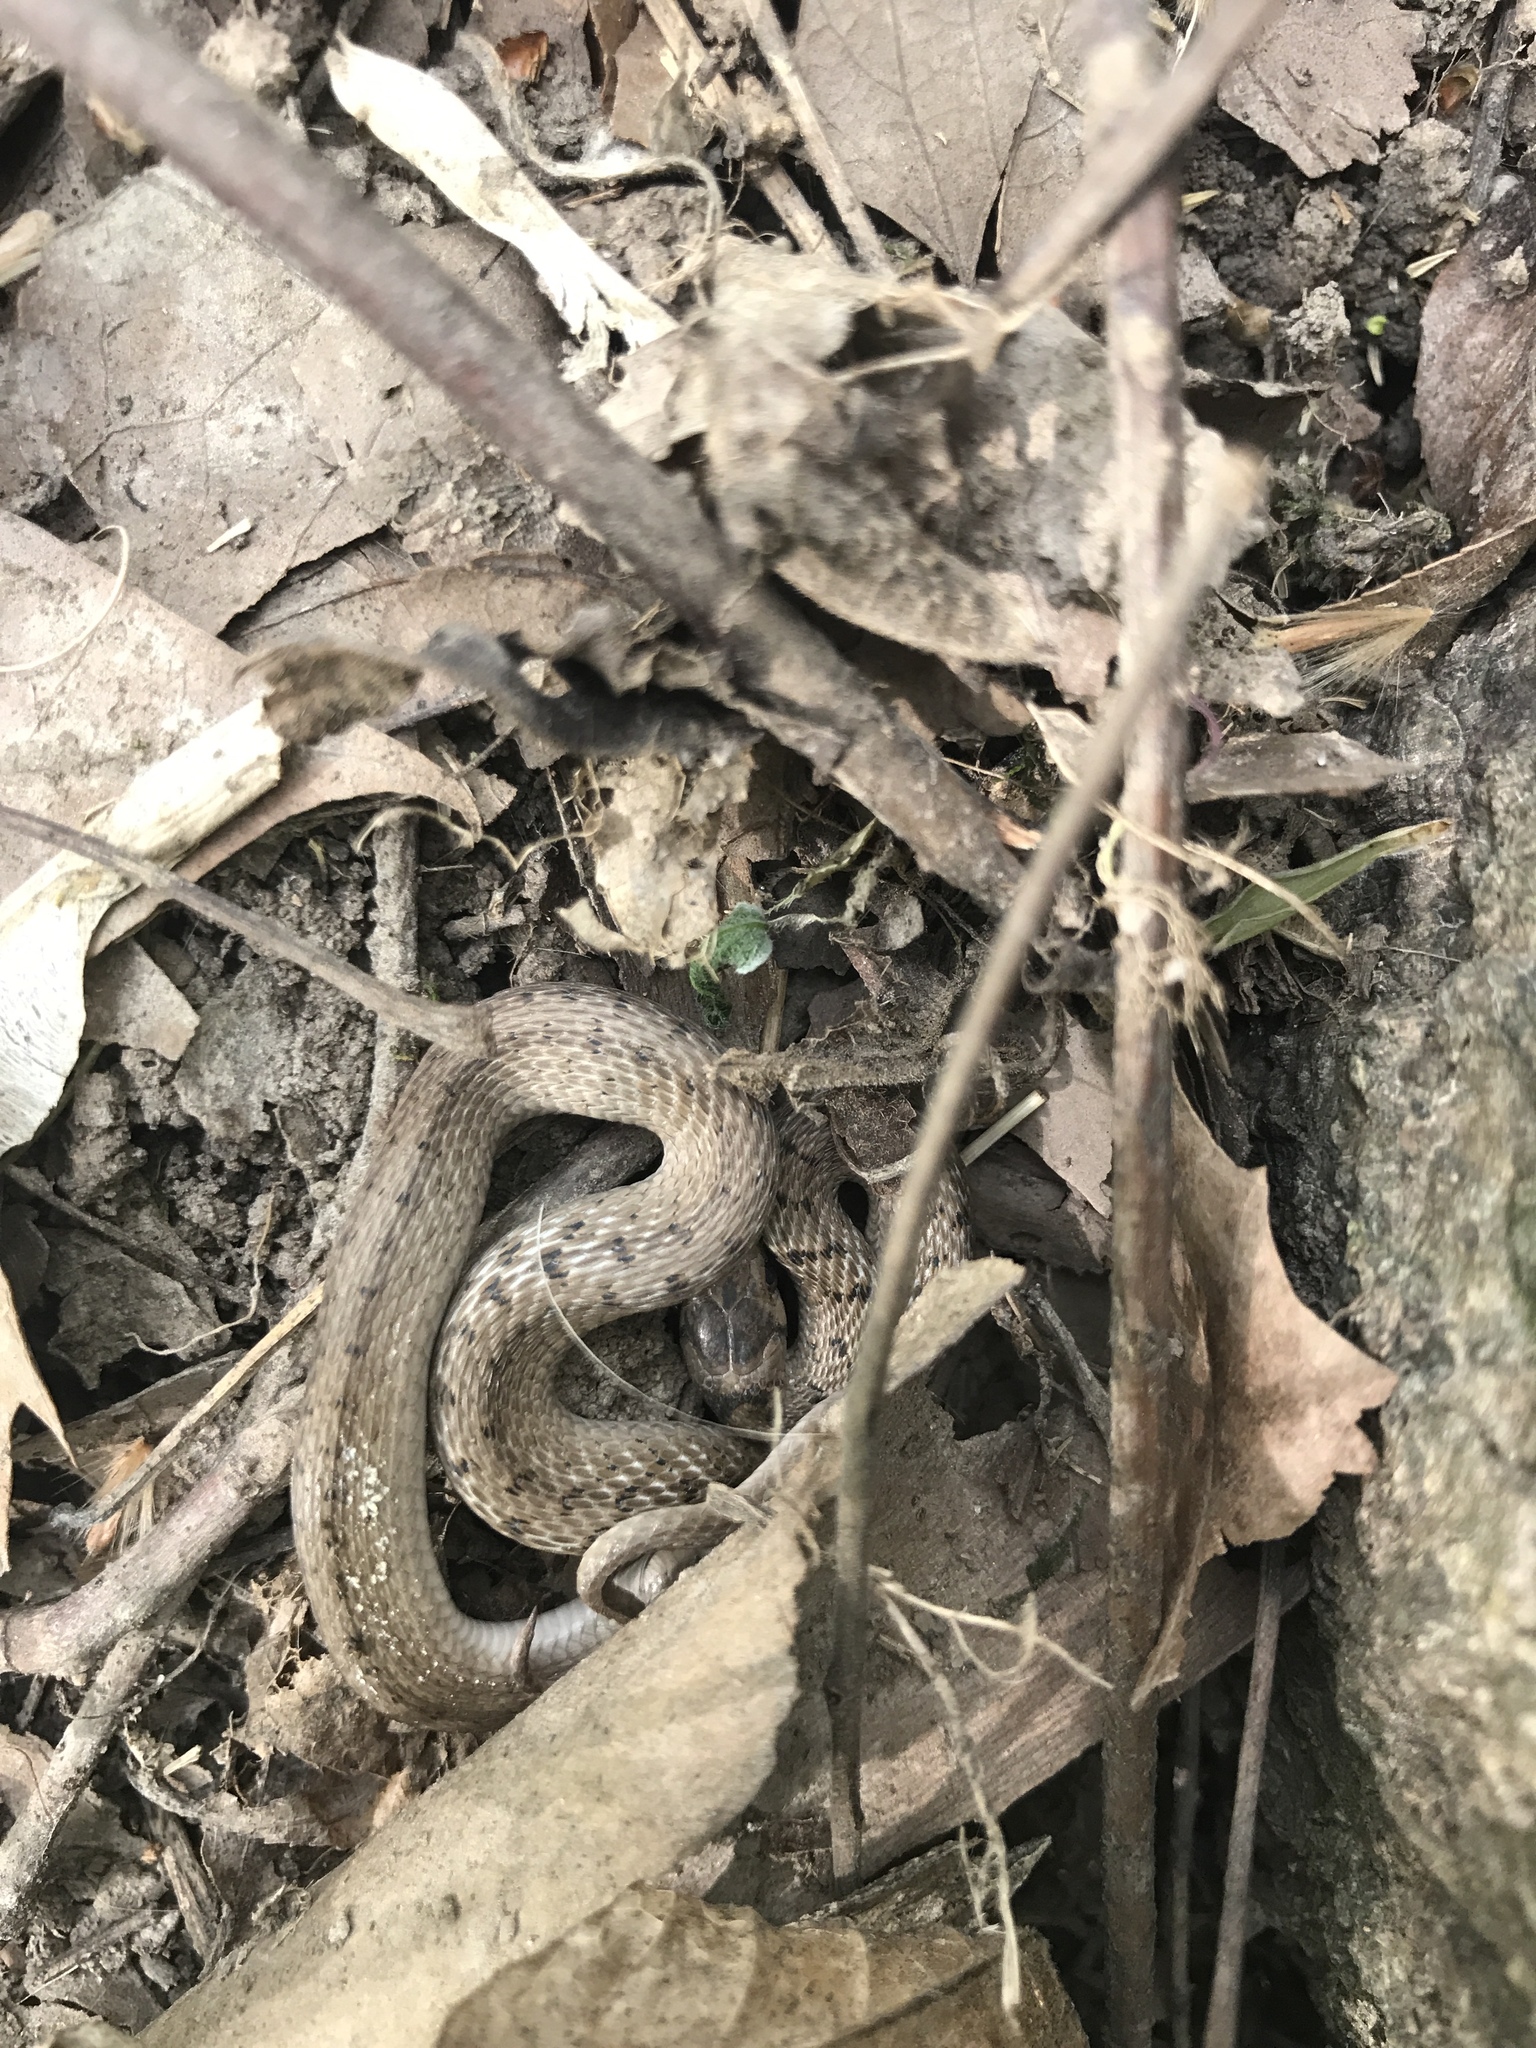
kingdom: Animalia
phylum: Chordata
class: Squamata
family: Colubridae
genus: Storeria
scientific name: Storeria dekayi
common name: (dekay’s) brown snake
